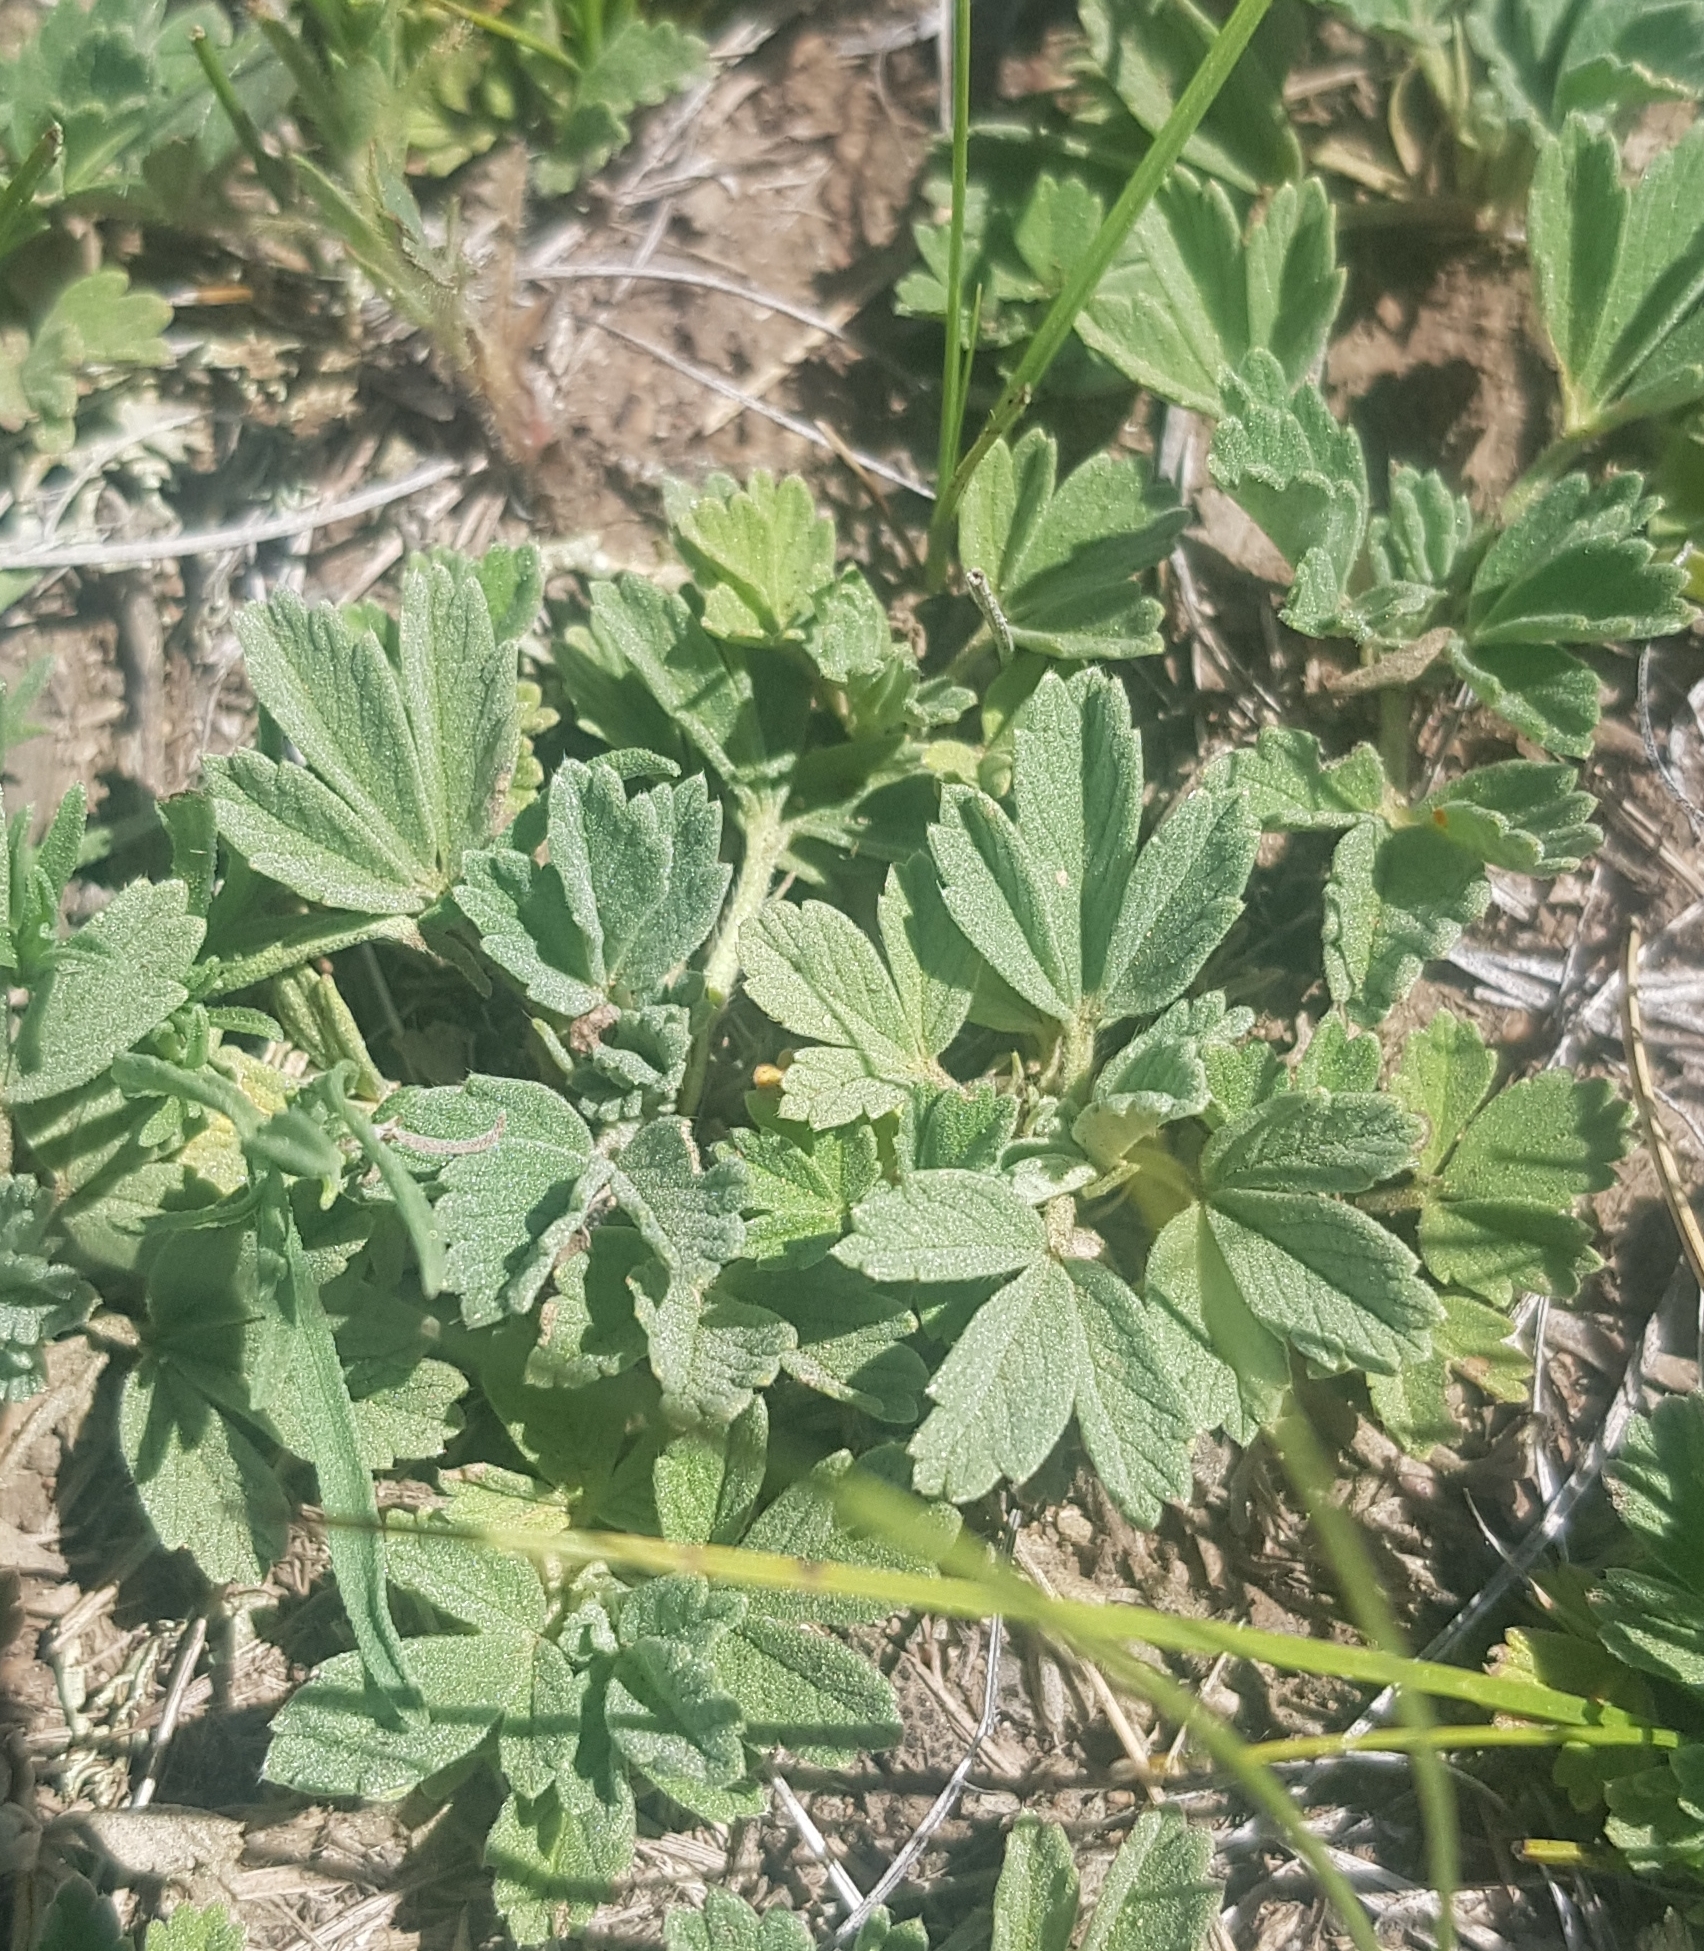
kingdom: Plantae
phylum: Tracheophyta
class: Magnoliopsida
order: Rosales
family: Rosaceae
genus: Potentilla
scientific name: Potentilla acaulis
